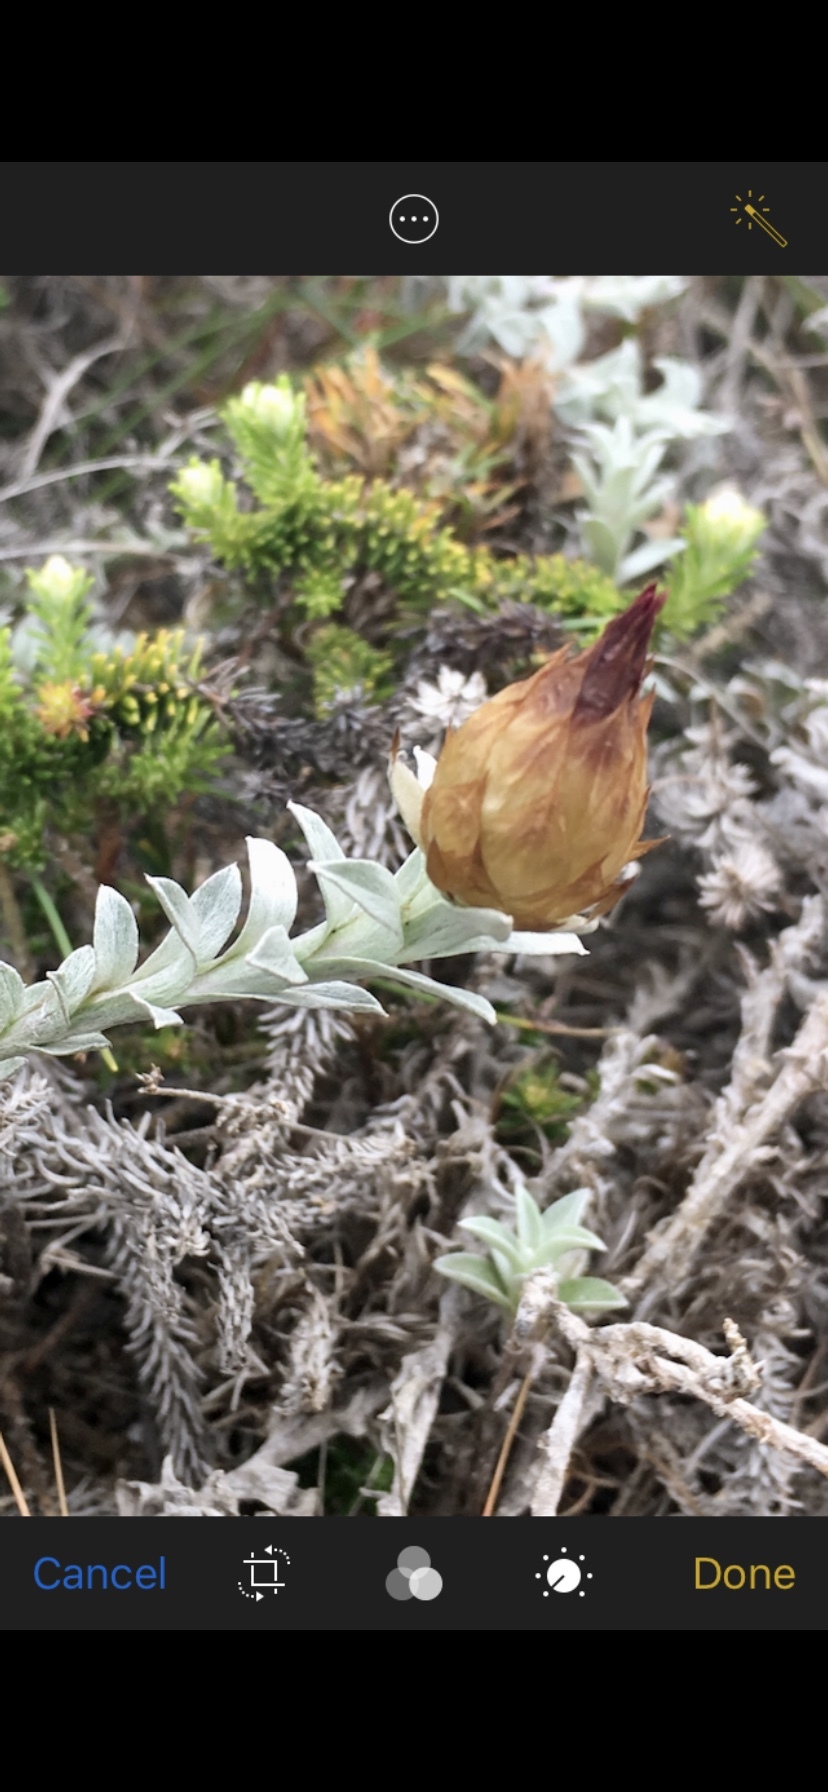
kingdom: Plantae
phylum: Tracheophyta
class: Magnoliopsida
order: Asterales
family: Asteraceae
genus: Helichrysum
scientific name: Helichrysum retortum
